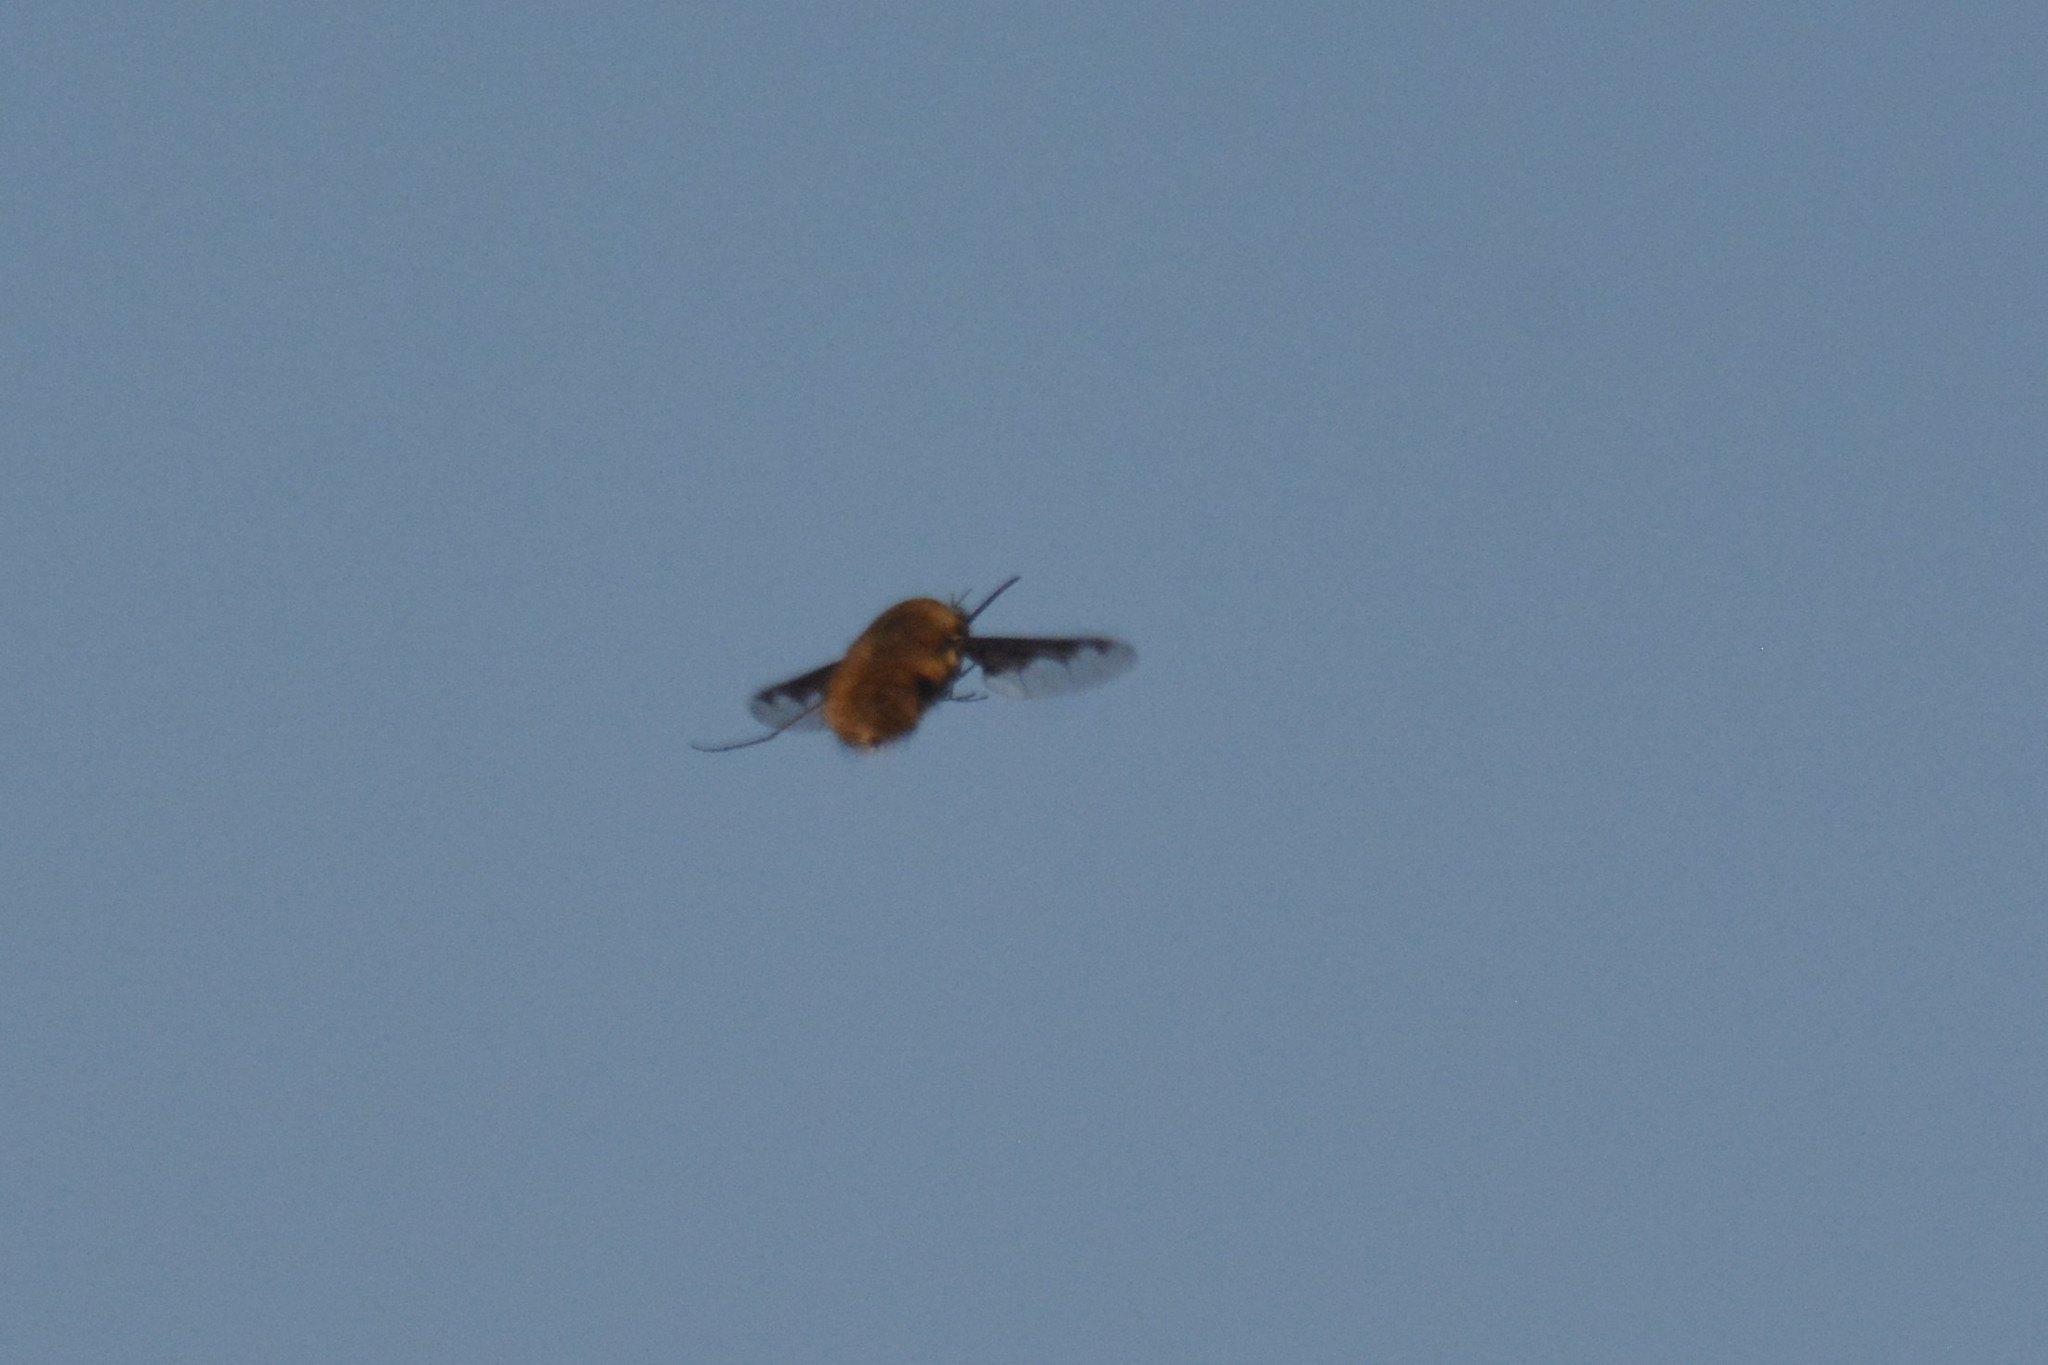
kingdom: Animalia
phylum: Arthropoda
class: Insecta
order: Diptera
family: Bombyliidae
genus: Bombylius
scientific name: Bombylius major
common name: Bee fly
